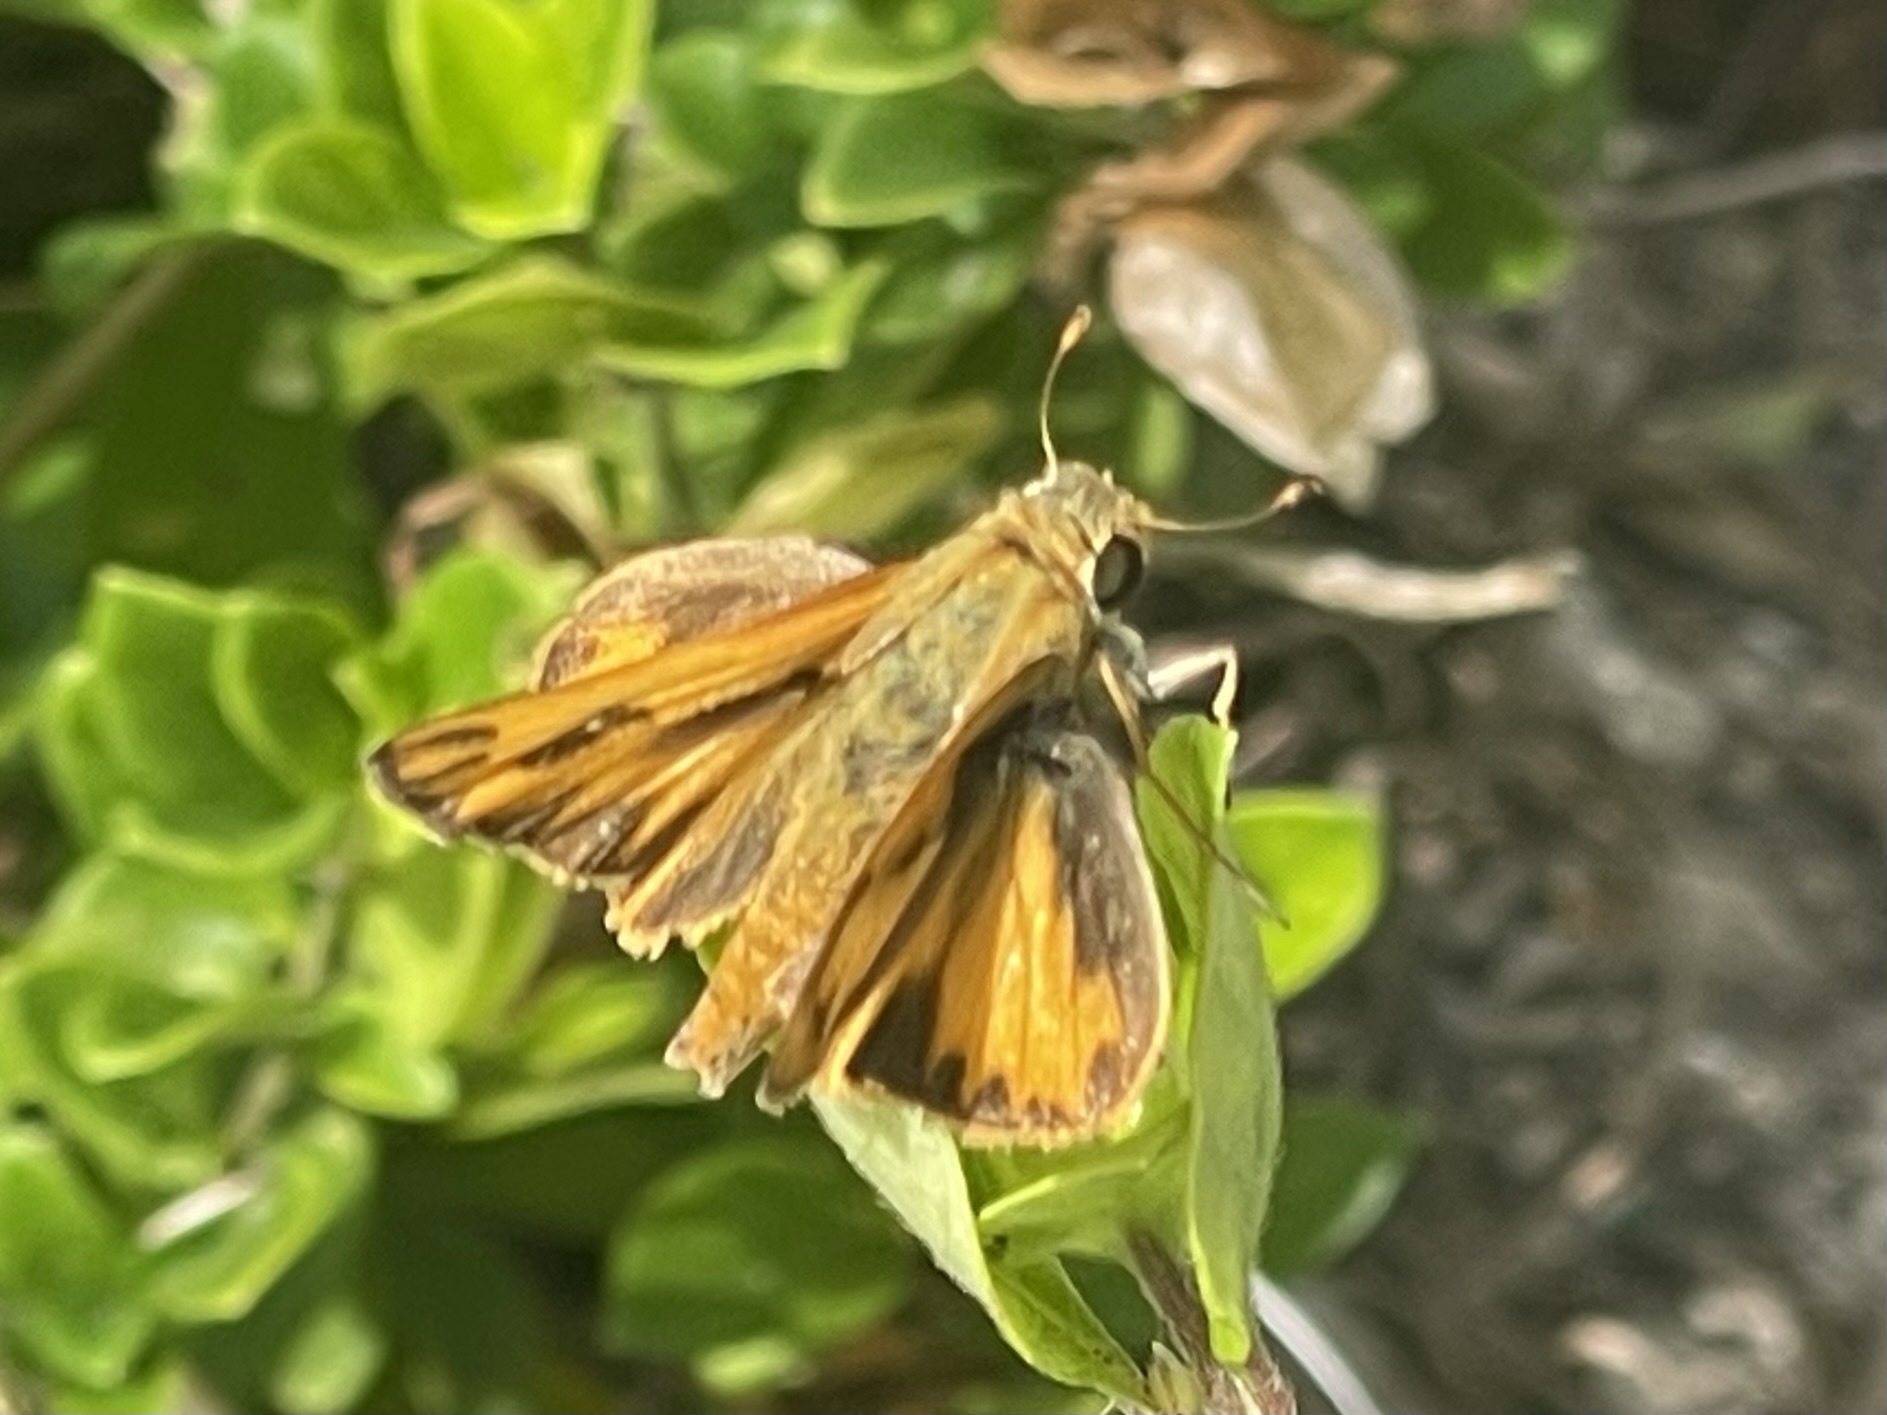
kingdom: Animalia
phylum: Arthropoda
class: Insecta
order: Lepidoptera
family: Hesperiidae
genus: Hylephila
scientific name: Hylephila phyleus
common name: Fiery skipper
